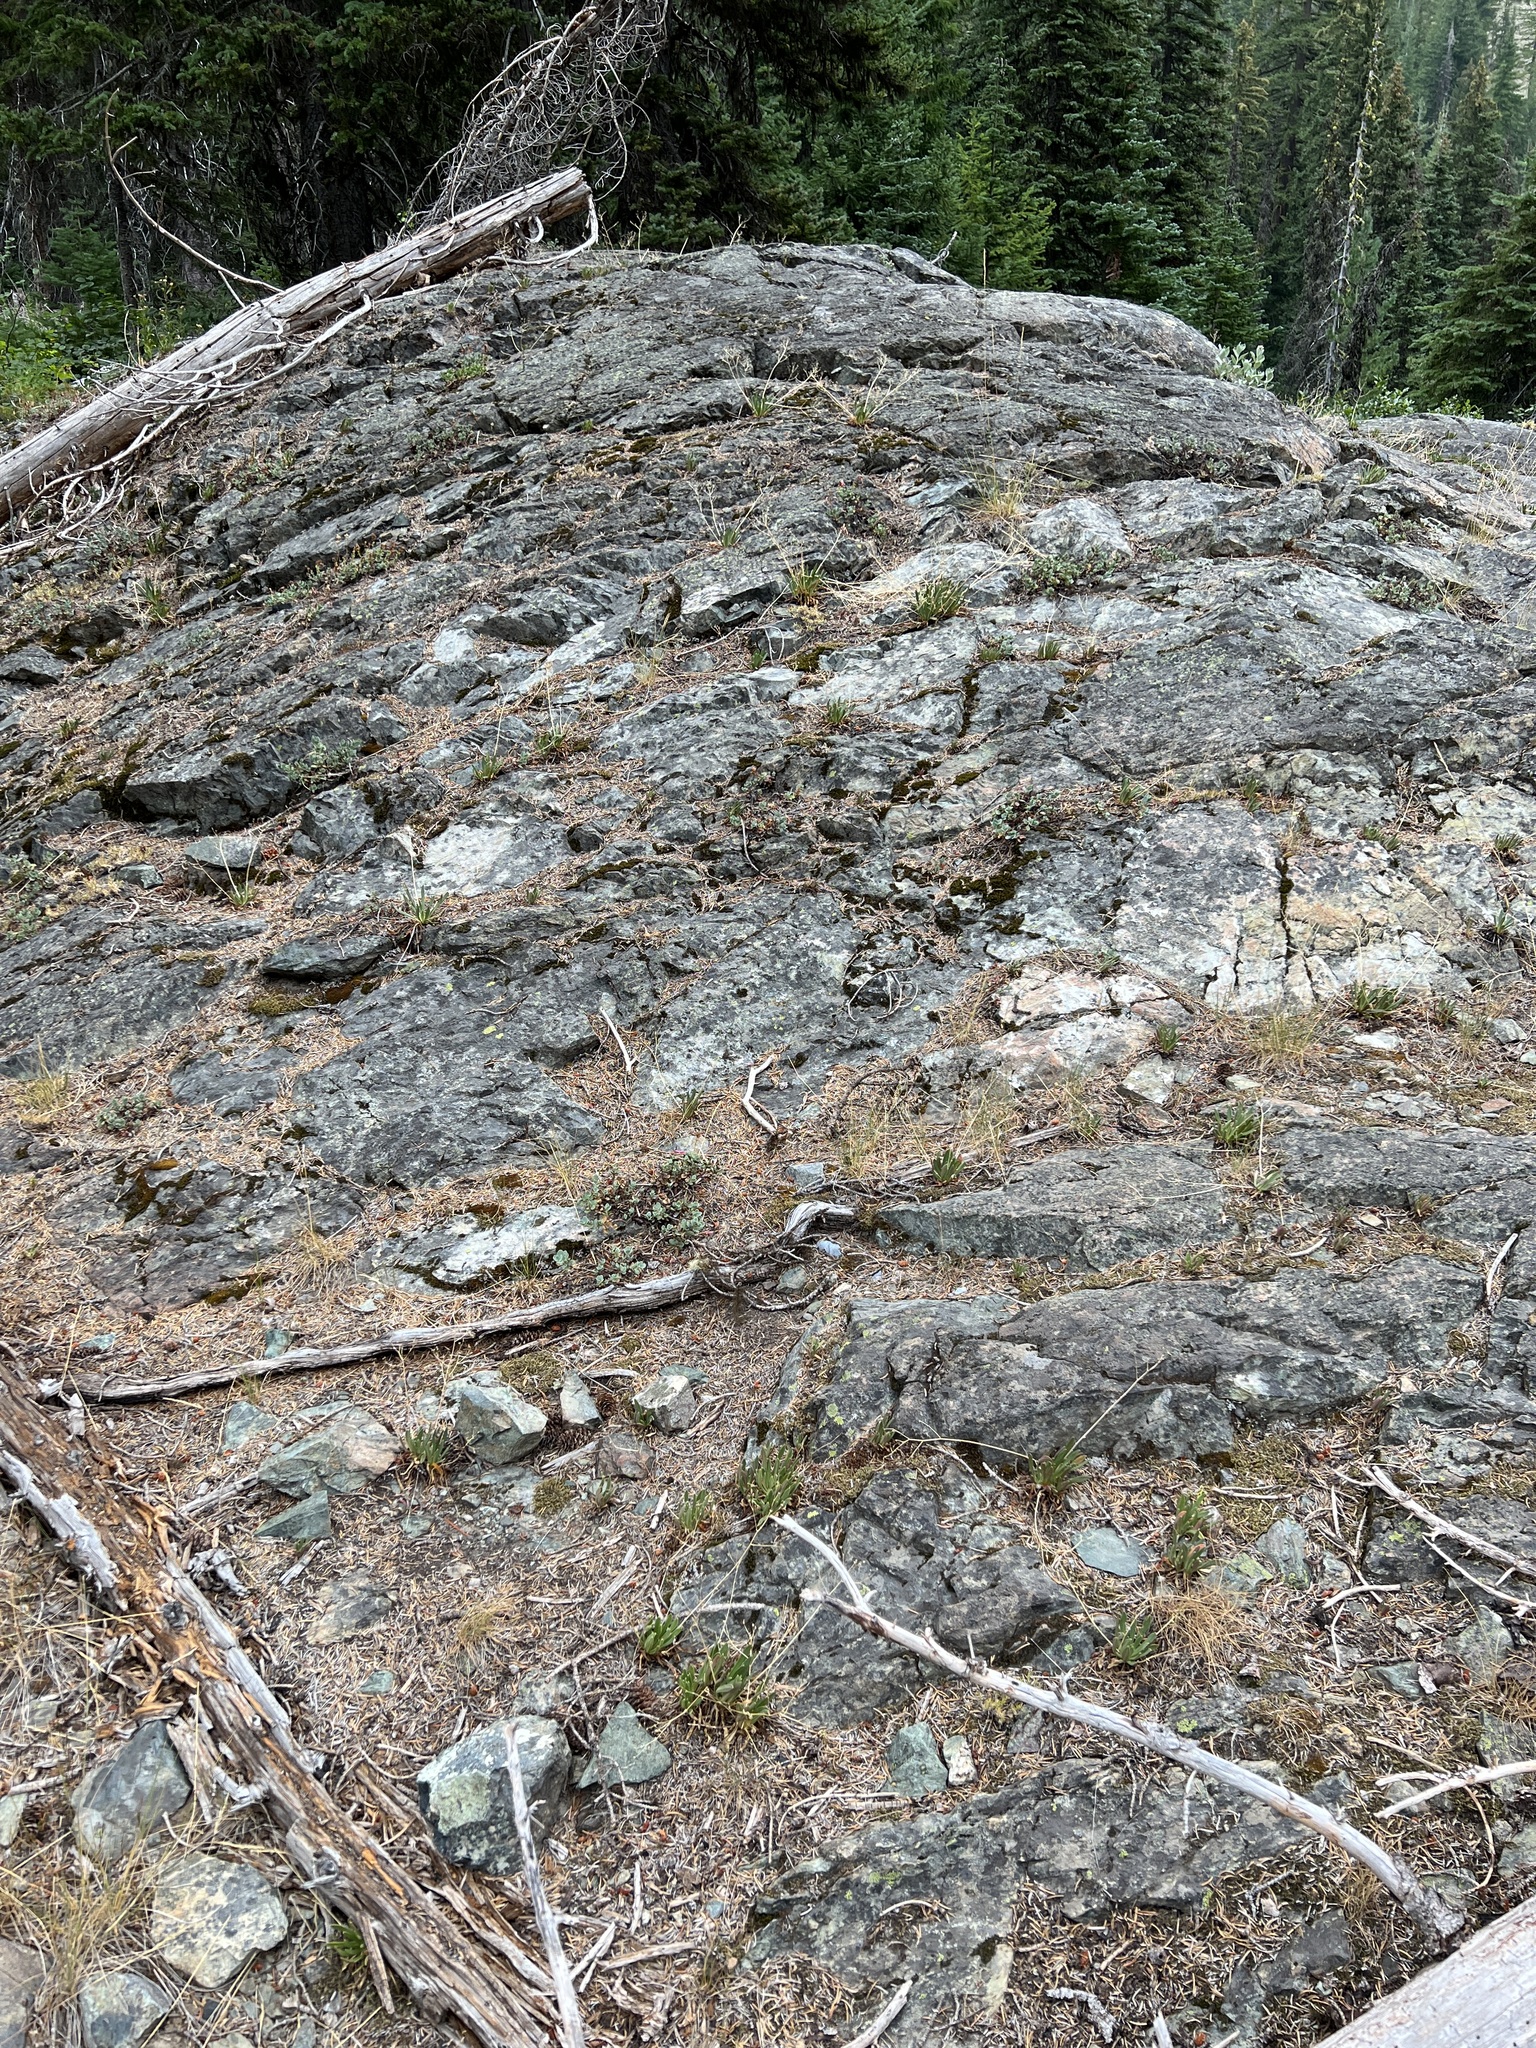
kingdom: Plantae
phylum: Tracheophyta
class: Magnoliopsida
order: Caryophyllales
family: Montiaceae
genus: Lewisia
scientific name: Lewisia columbiana
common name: Columbia lewisia
